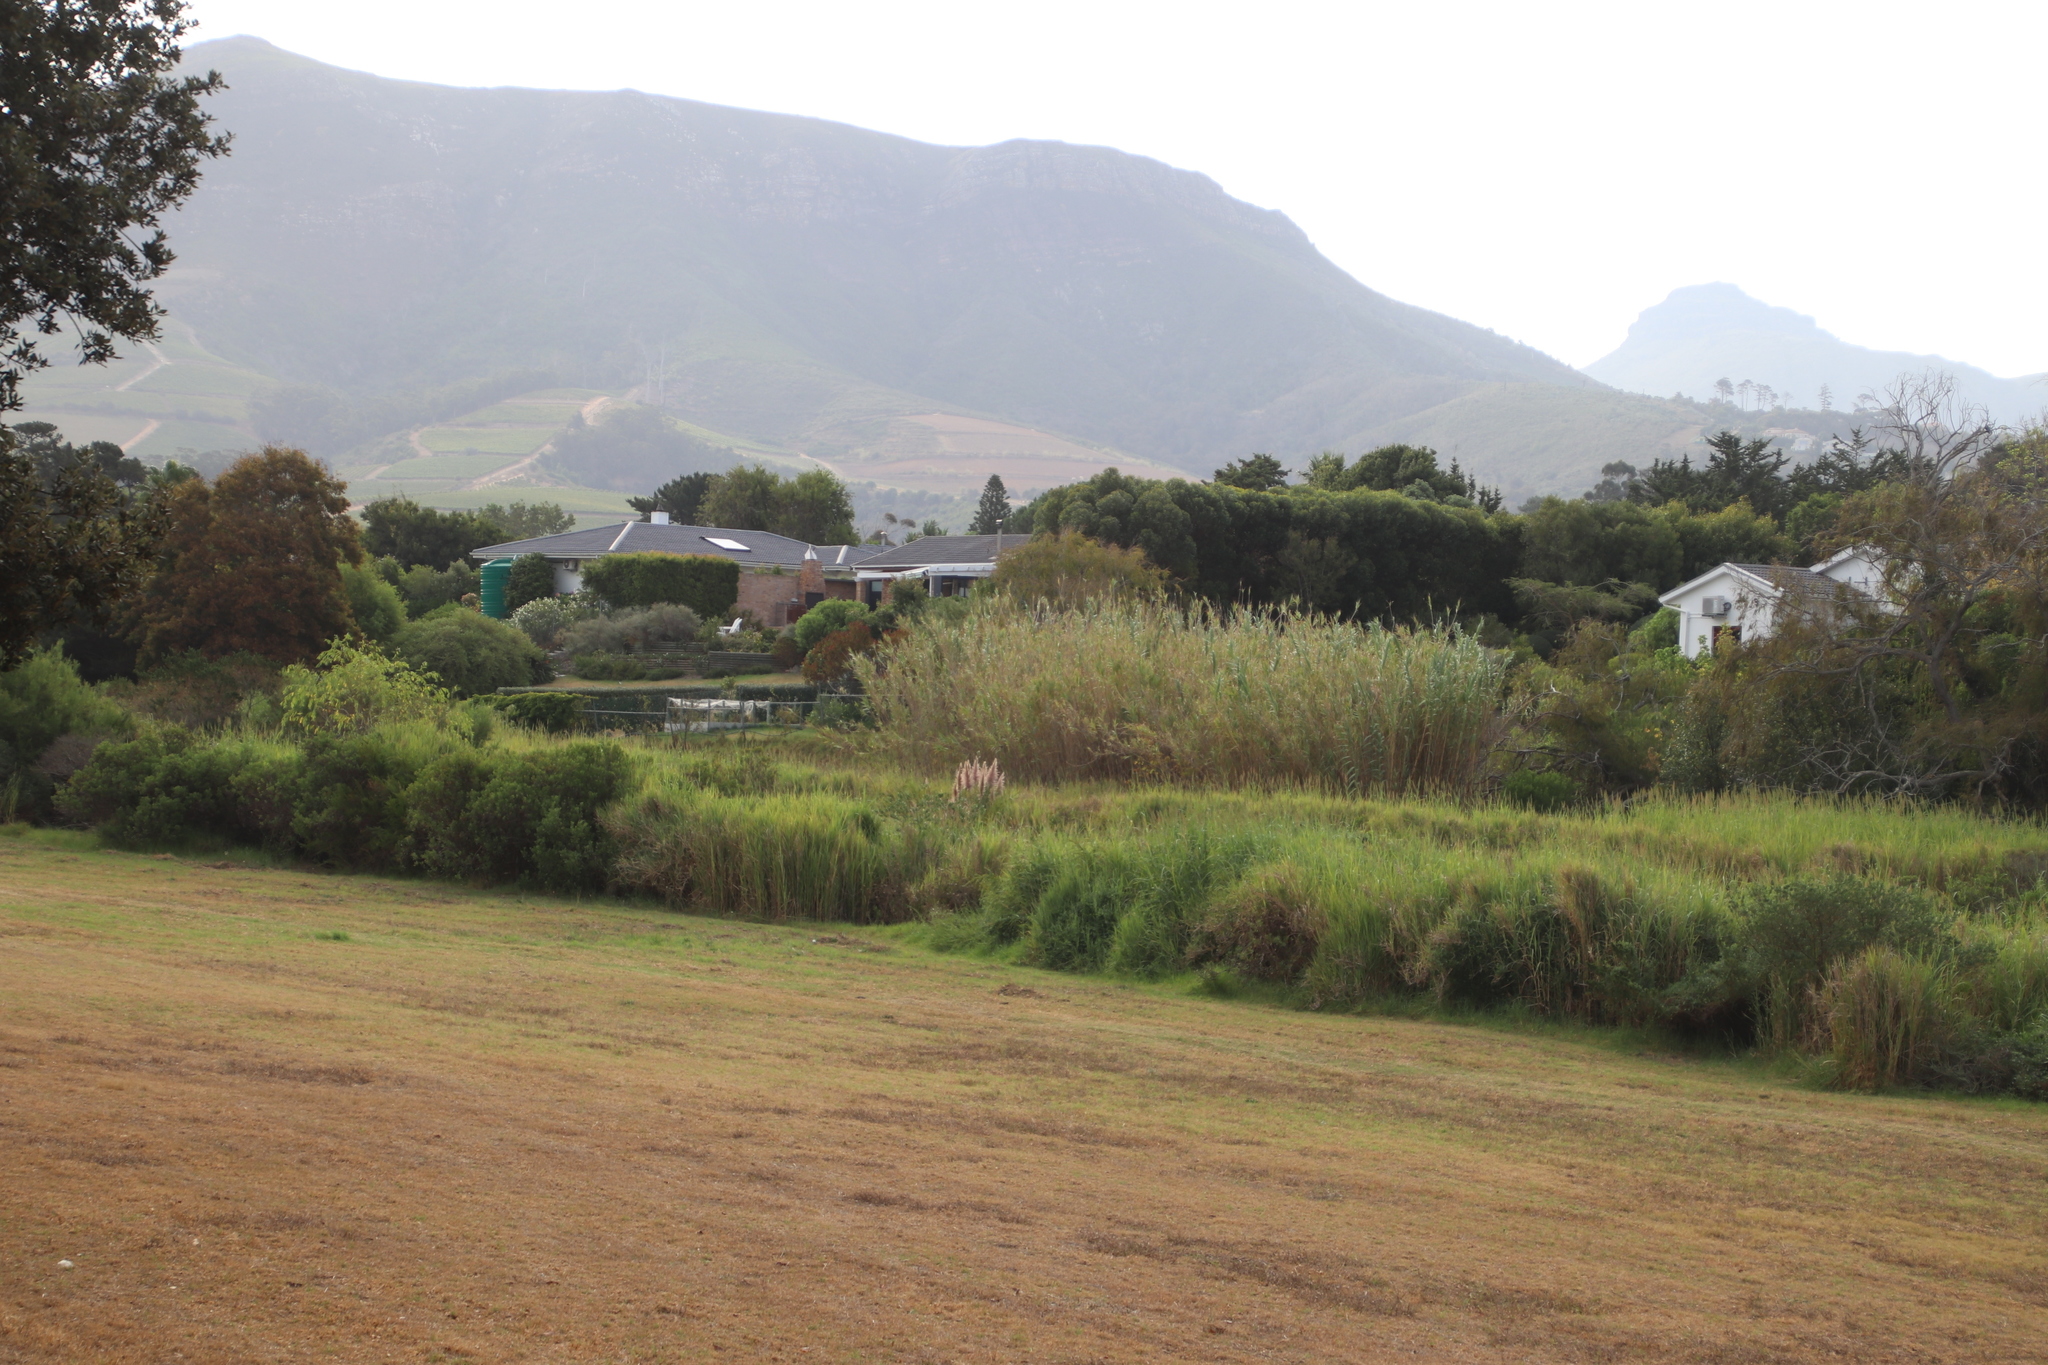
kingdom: Plantae
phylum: Tracheophyta
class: Liliopsida
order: Poales
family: Poaceae
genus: Arundo
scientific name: Arundo donax
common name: Giant reed
